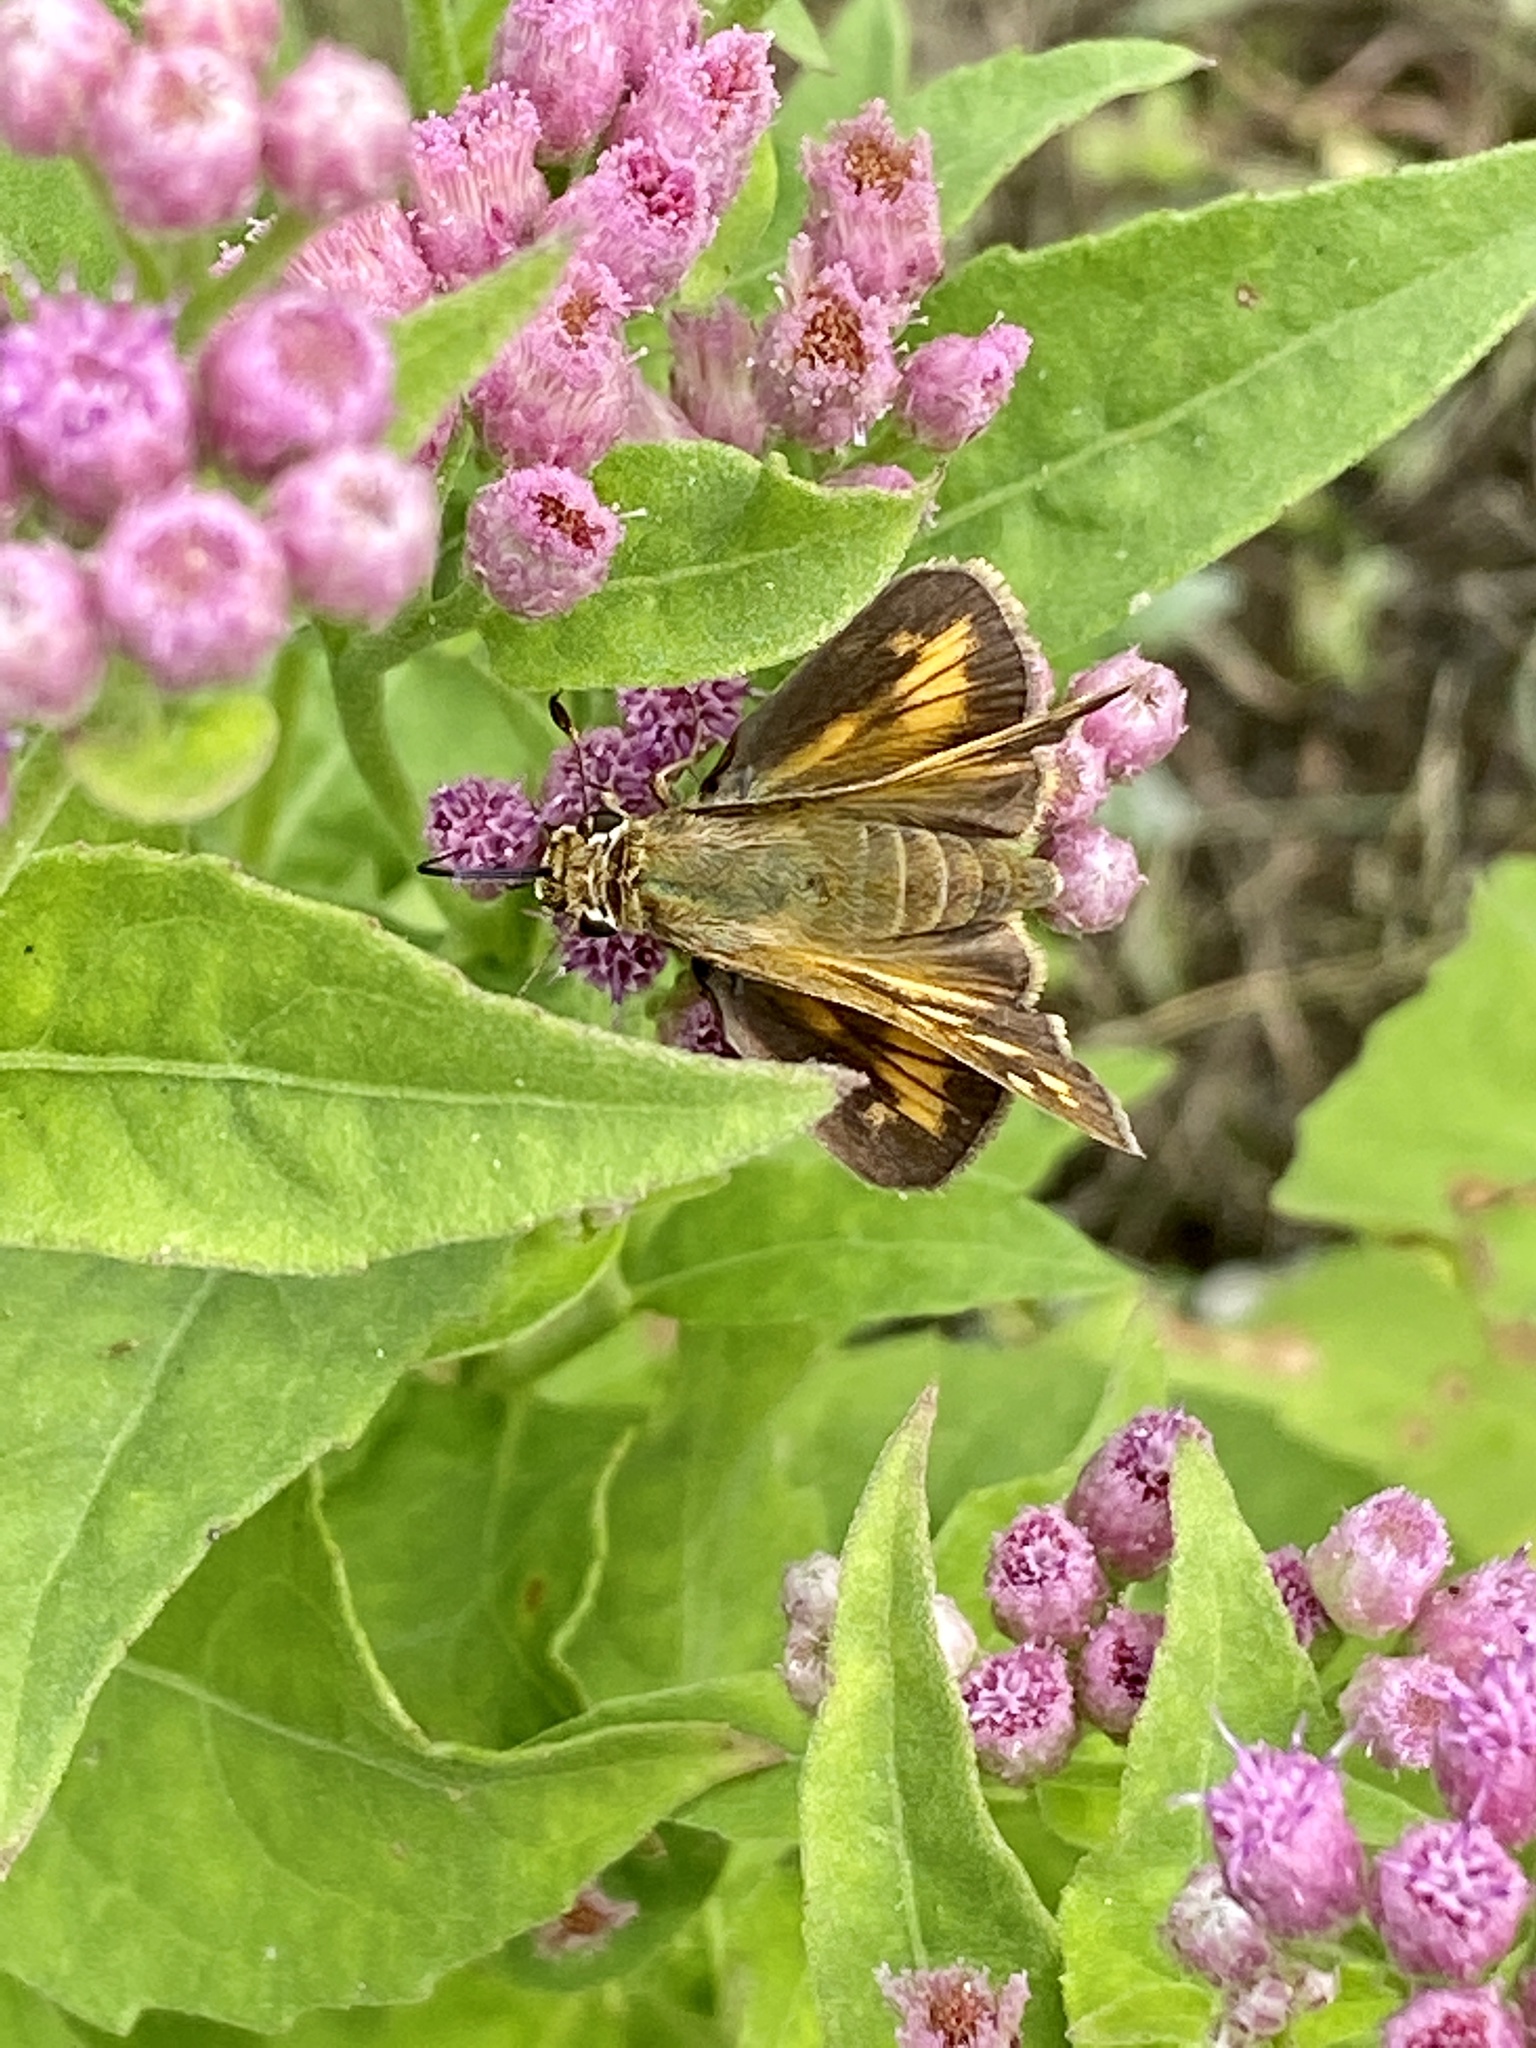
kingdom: Animalia
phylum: Arthropoda
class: Insecta
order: Lepidoptera
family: Hesperiidae
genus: Atalopedes
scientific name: Atalopedes
